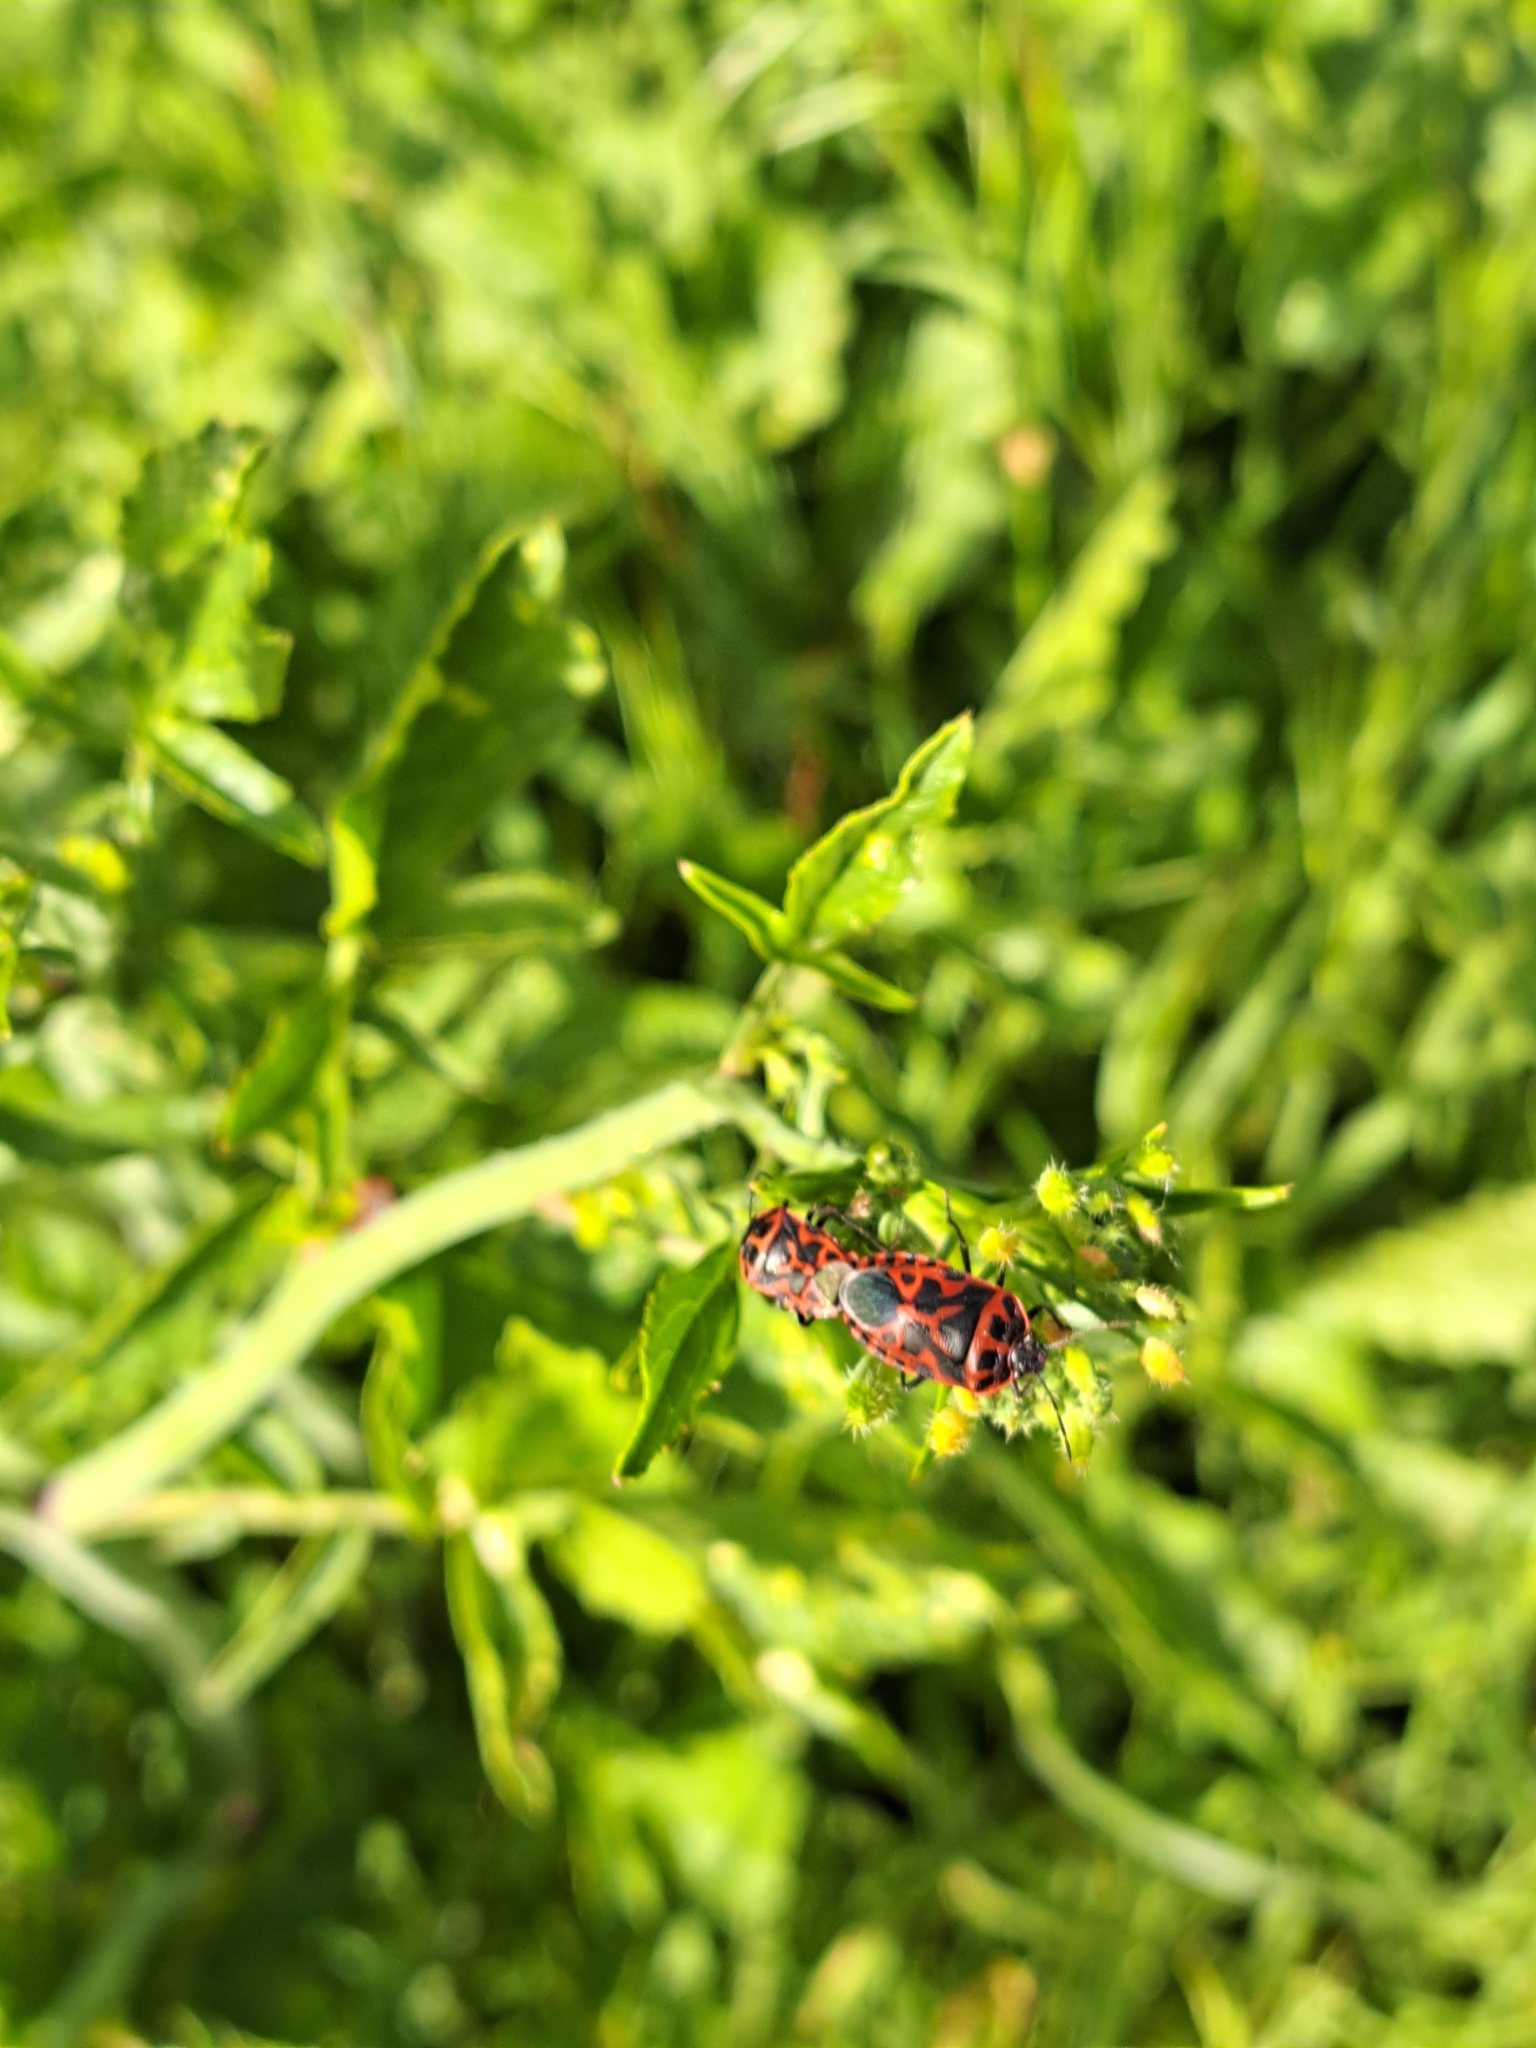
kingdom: Animalia
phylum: Arthropoda
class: Insecta
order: Hemiptera
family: Pentatomidae
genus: Eurydema
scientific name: Eurydema ventralis
